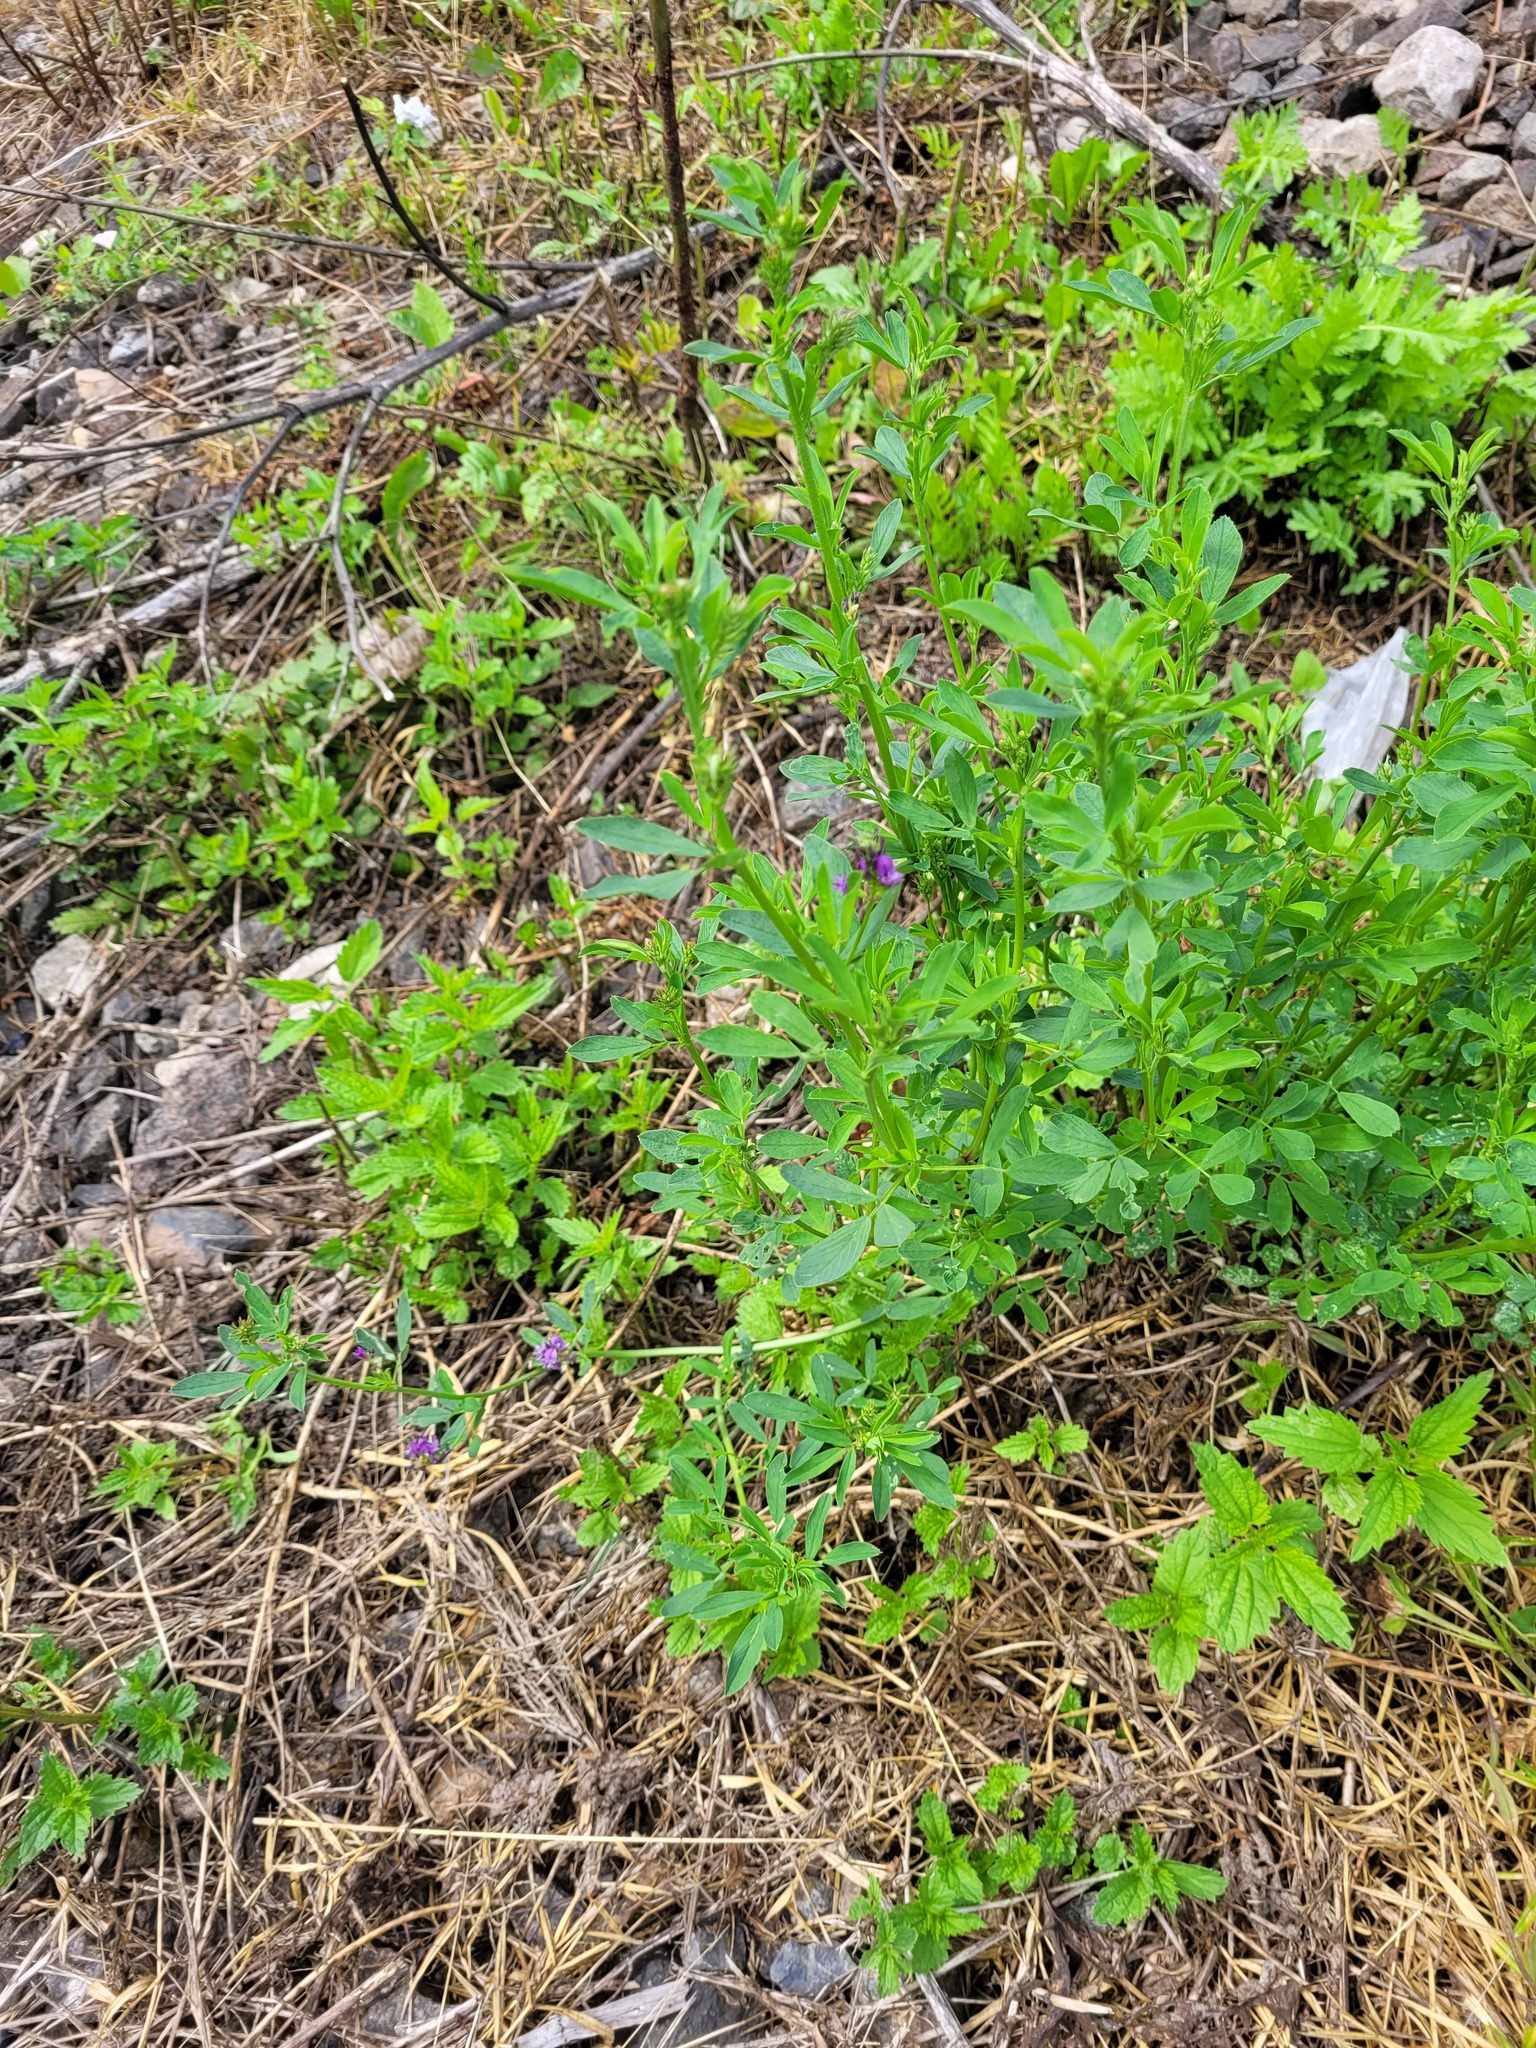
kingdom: Plantae
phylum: Tracheophyta
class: Magnoliopsida
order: Fabales
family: Fabaceae
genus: Medicago
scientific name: Medicago sativa
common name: Alfalfa
